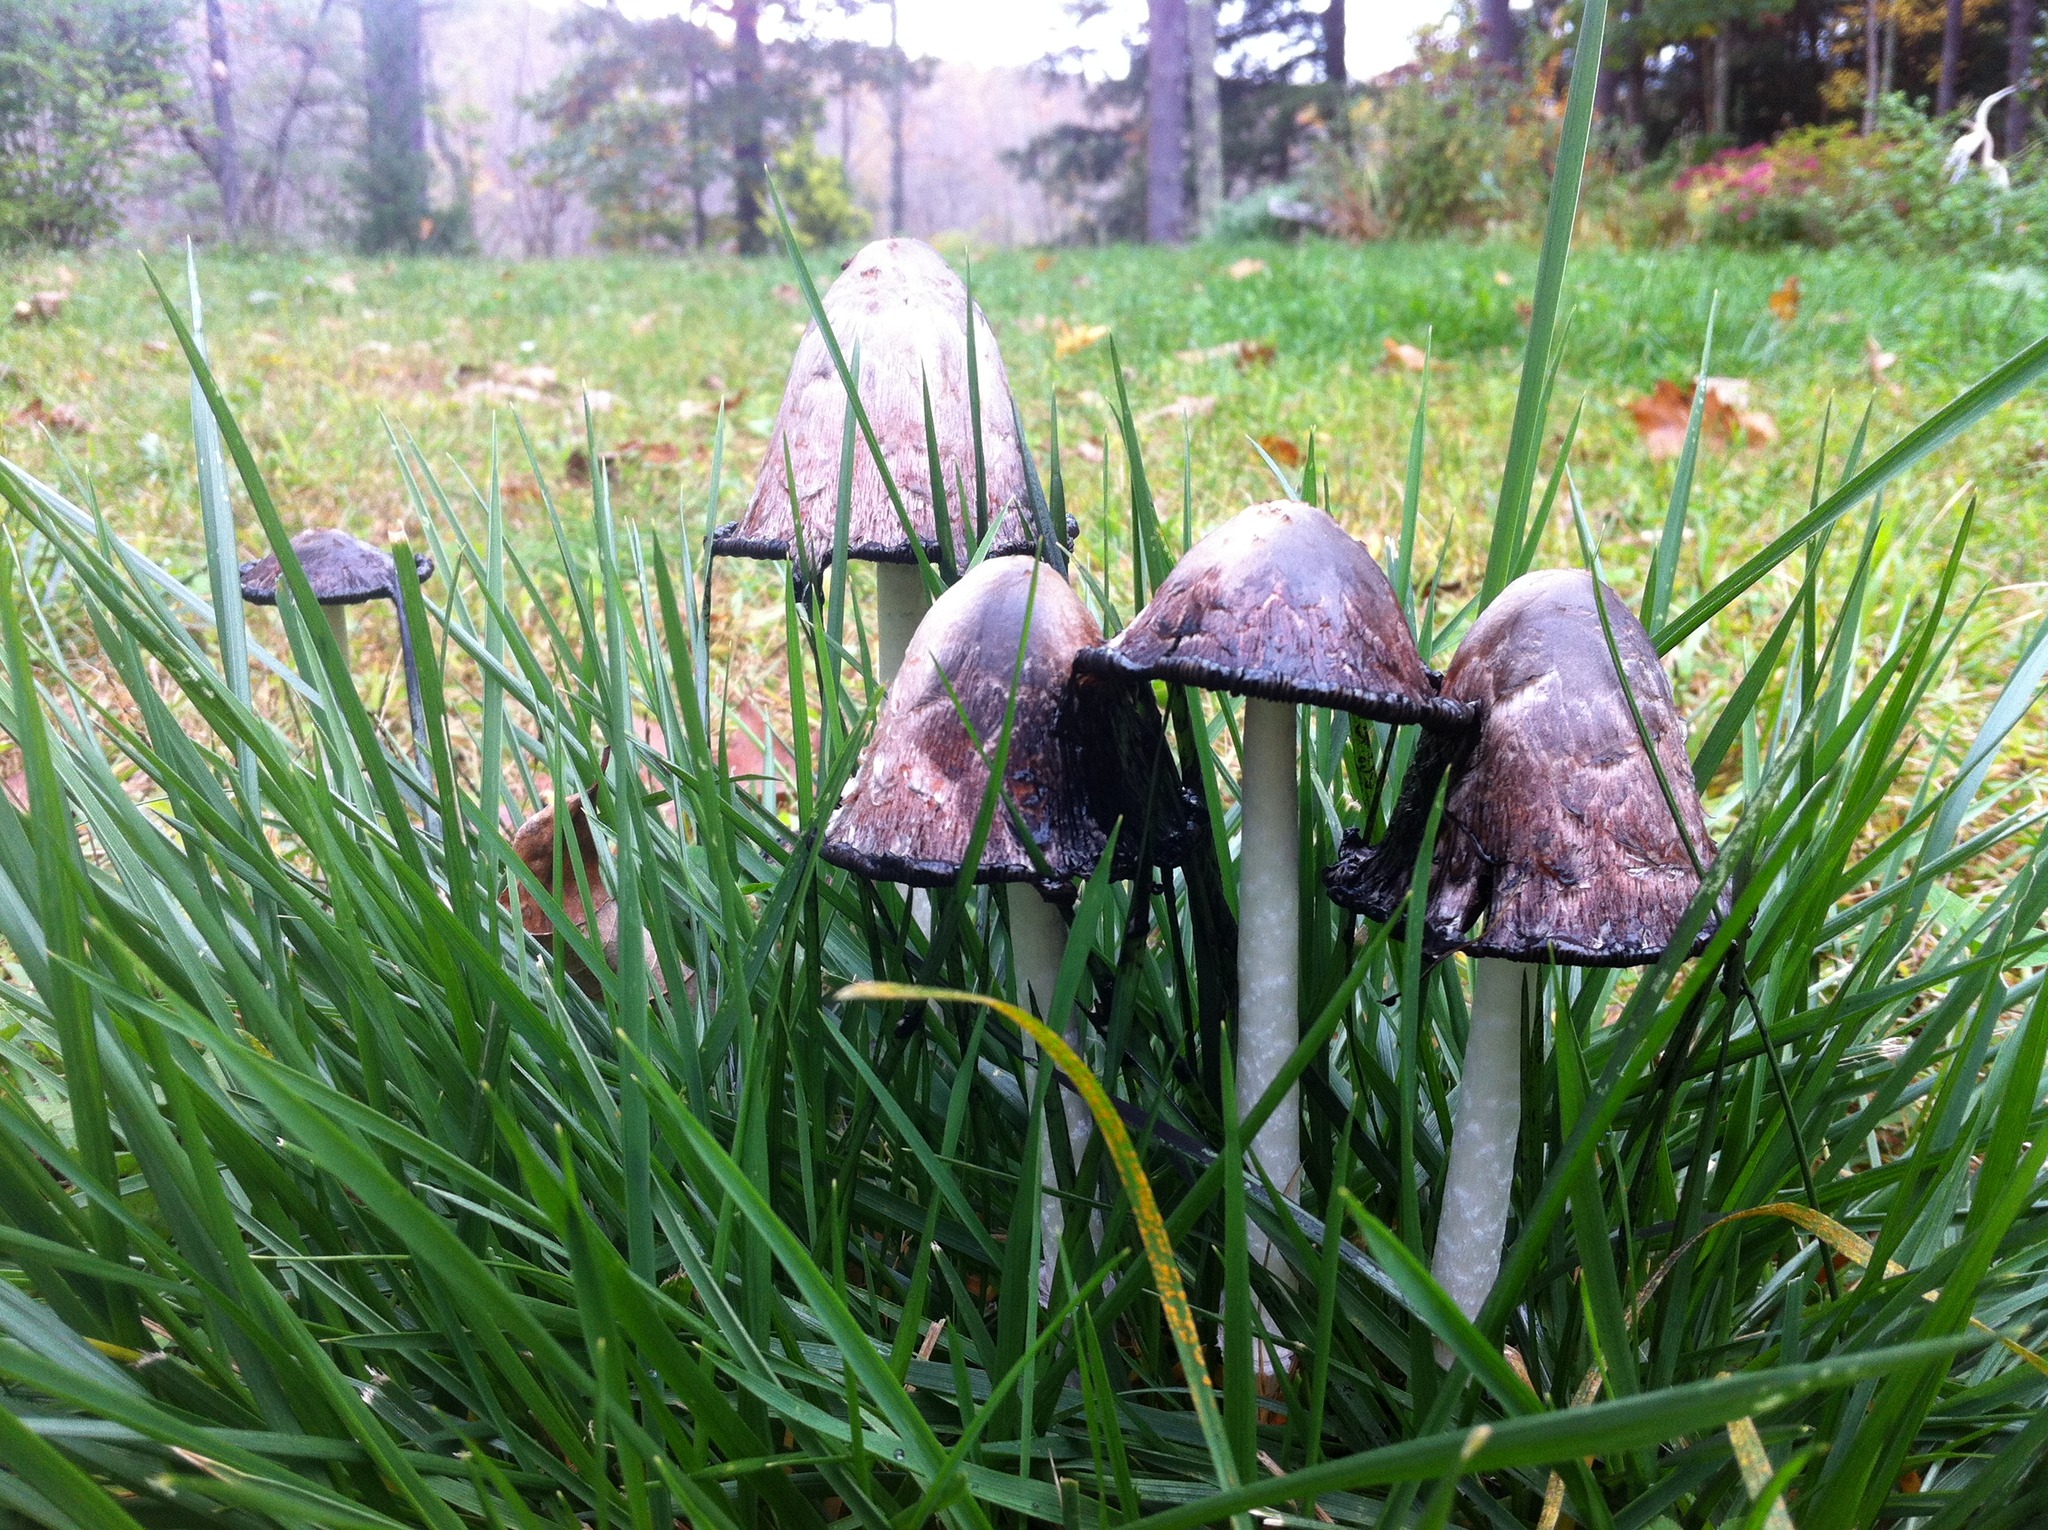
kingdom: Fungi
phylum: Basidiomycota
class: Agaricomycetes
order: Agaricales
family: Agaricaceae
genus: Coprinus
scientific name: Coprinus comatus
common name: Lawyer's wig
